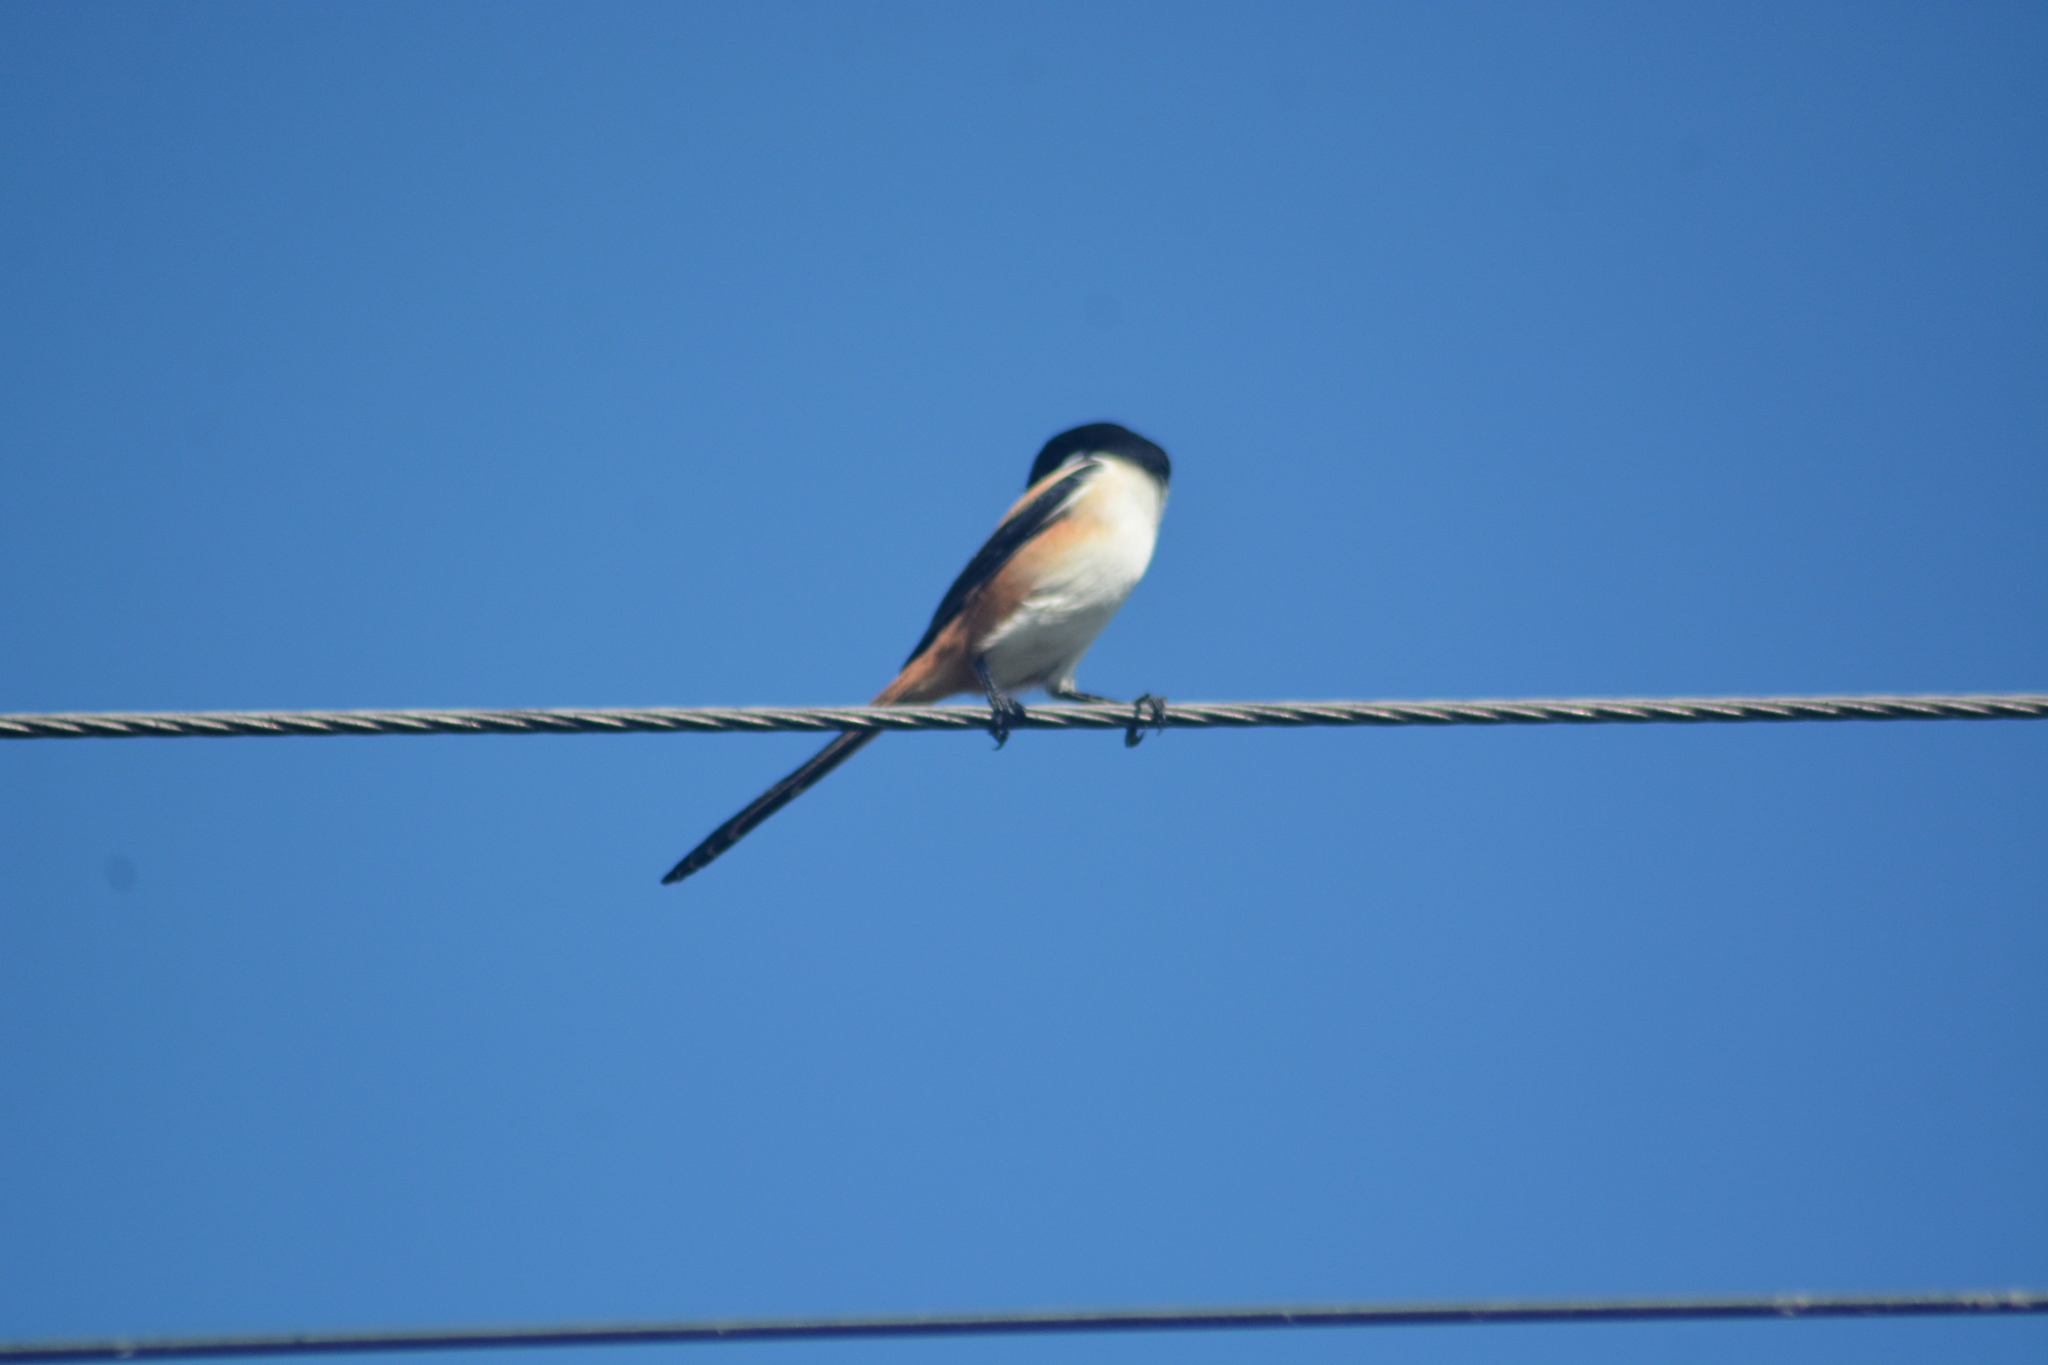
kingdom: Animalia
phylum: Chordata
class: Aves
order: Passeriformes
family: Laniidae
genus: Lanius
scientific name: Lanius schach
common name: Long-tailed shrike
